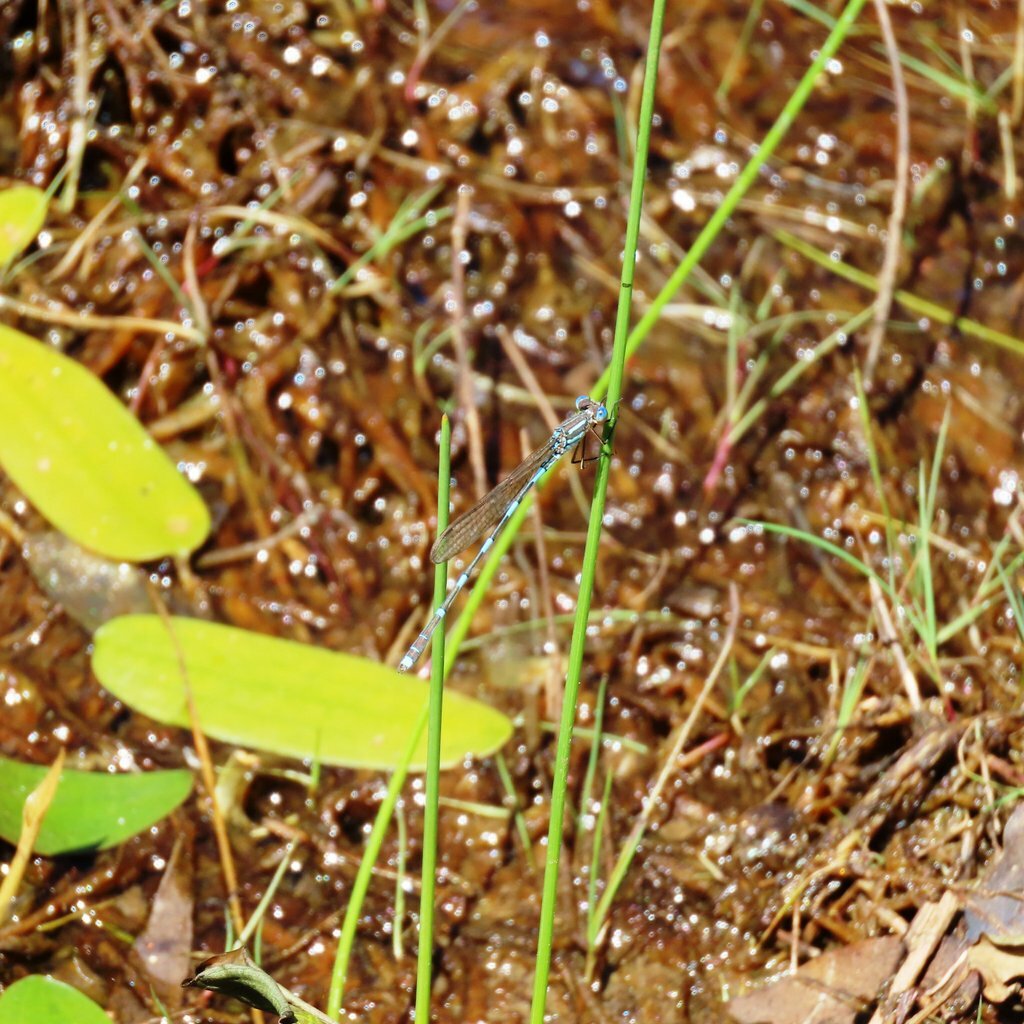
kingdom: Animalia
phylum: Arthropoda
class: Insecta
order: Odonata
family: Lestidae
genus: Austrolestes
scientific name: Austrolestes leda
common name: Wandering ringtail
